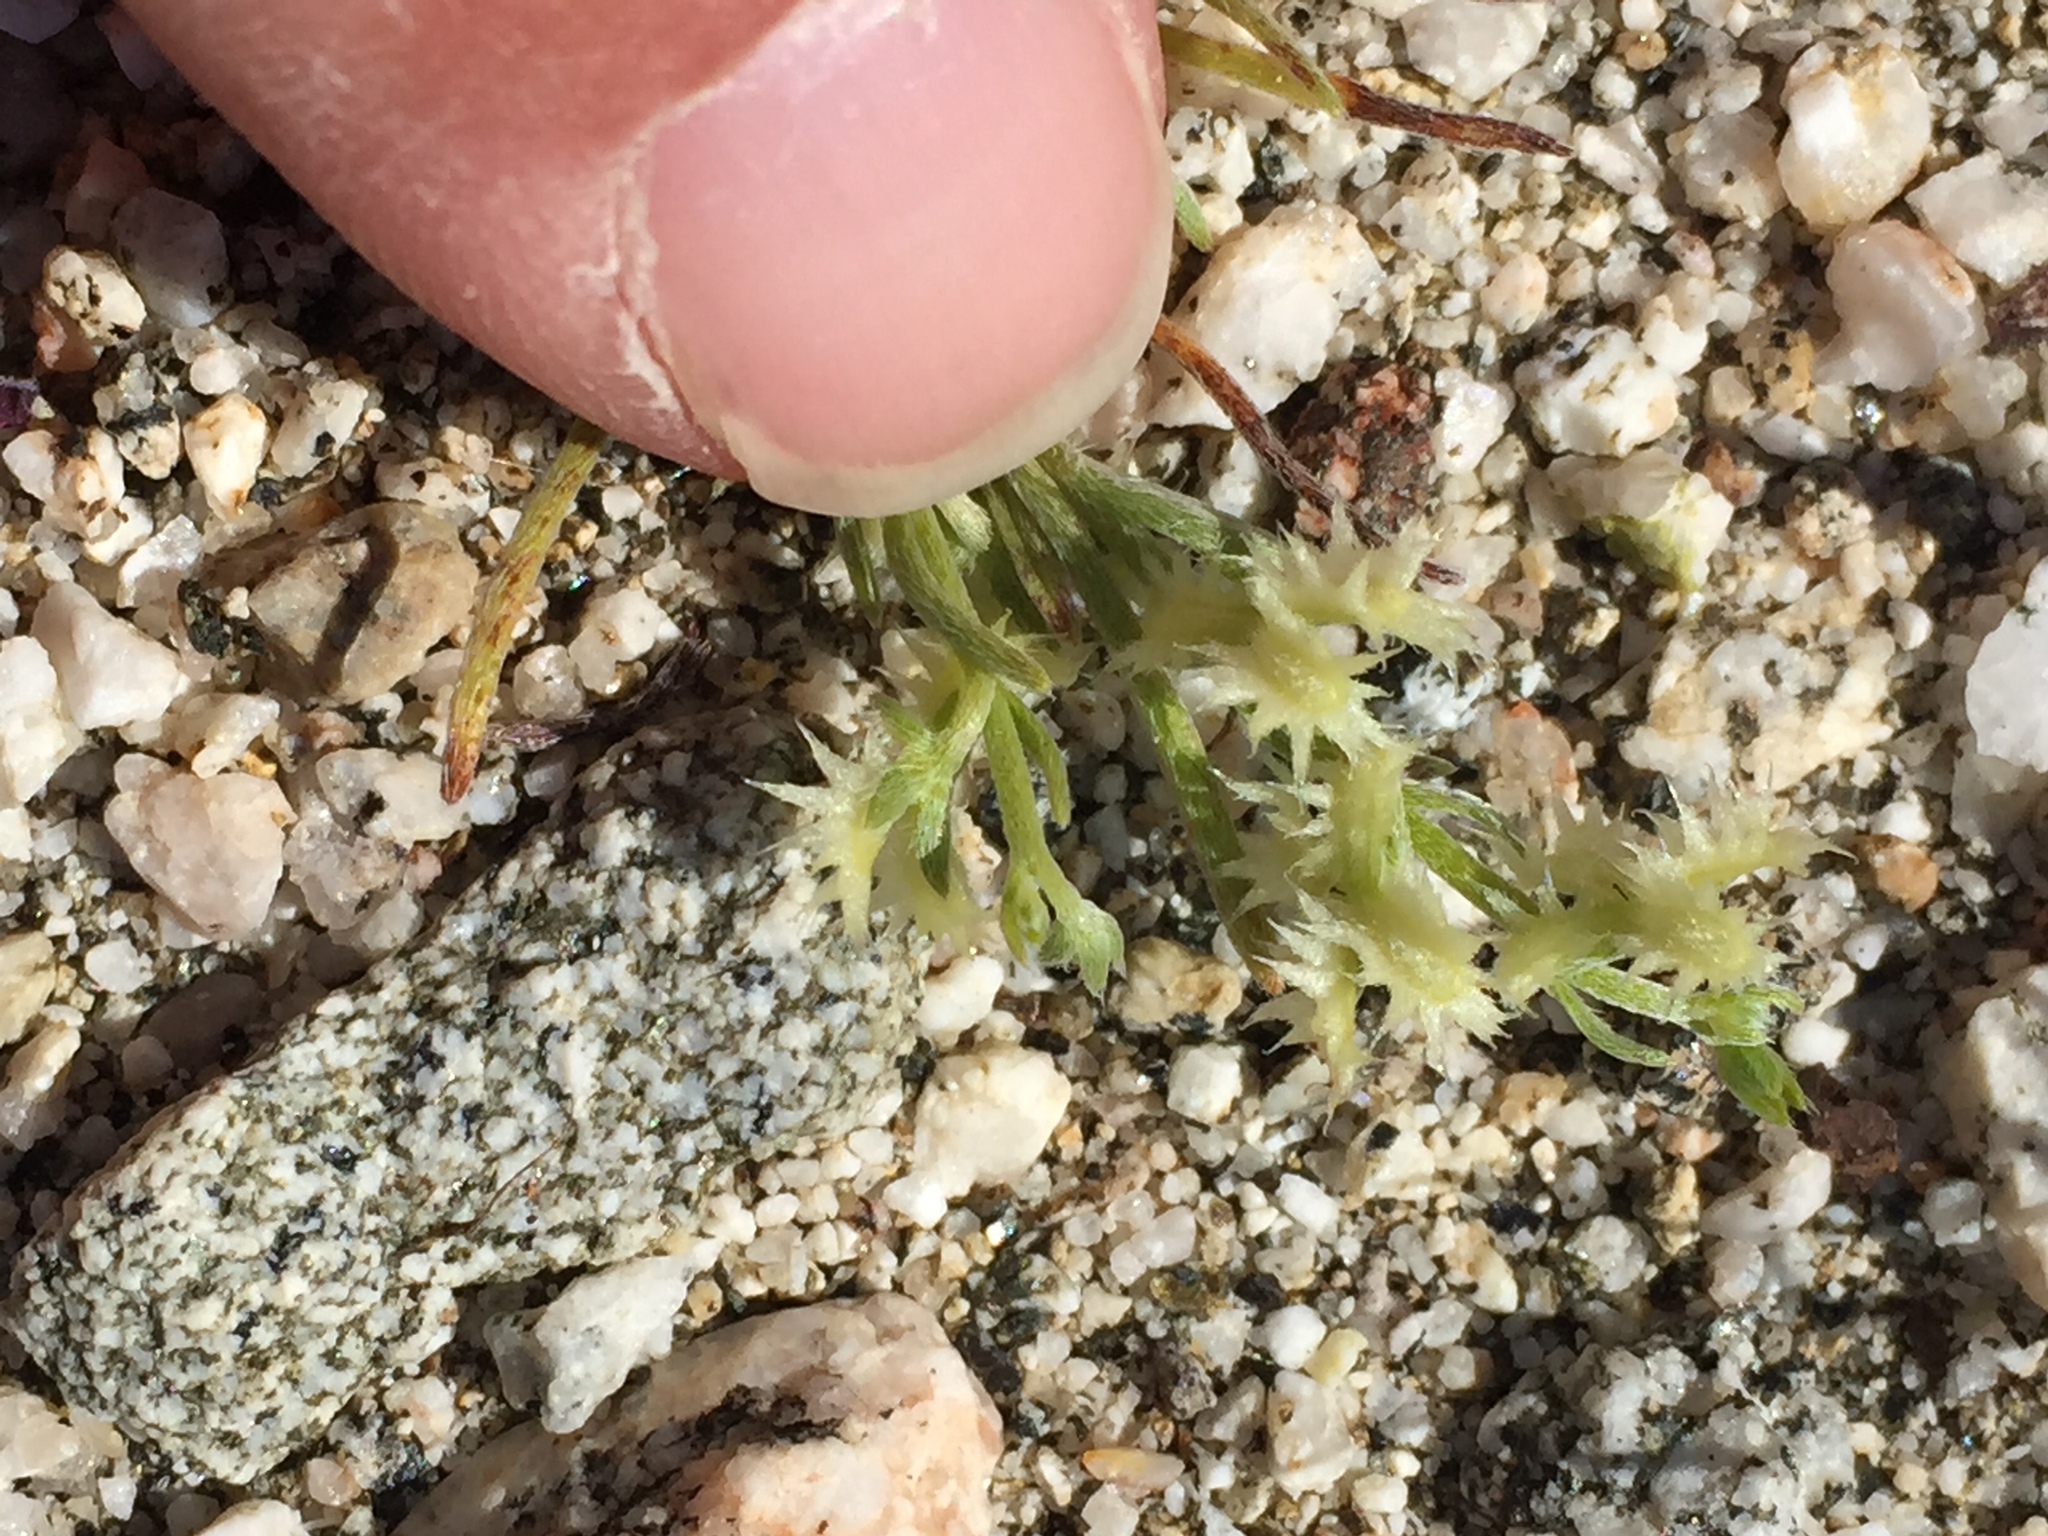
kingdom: Plantae
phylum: Tracheophyta
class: Magnoliopsida
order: Boraginales
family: Boraginaceae
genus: Pectocarya
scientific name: Pectocarya platycarpa
